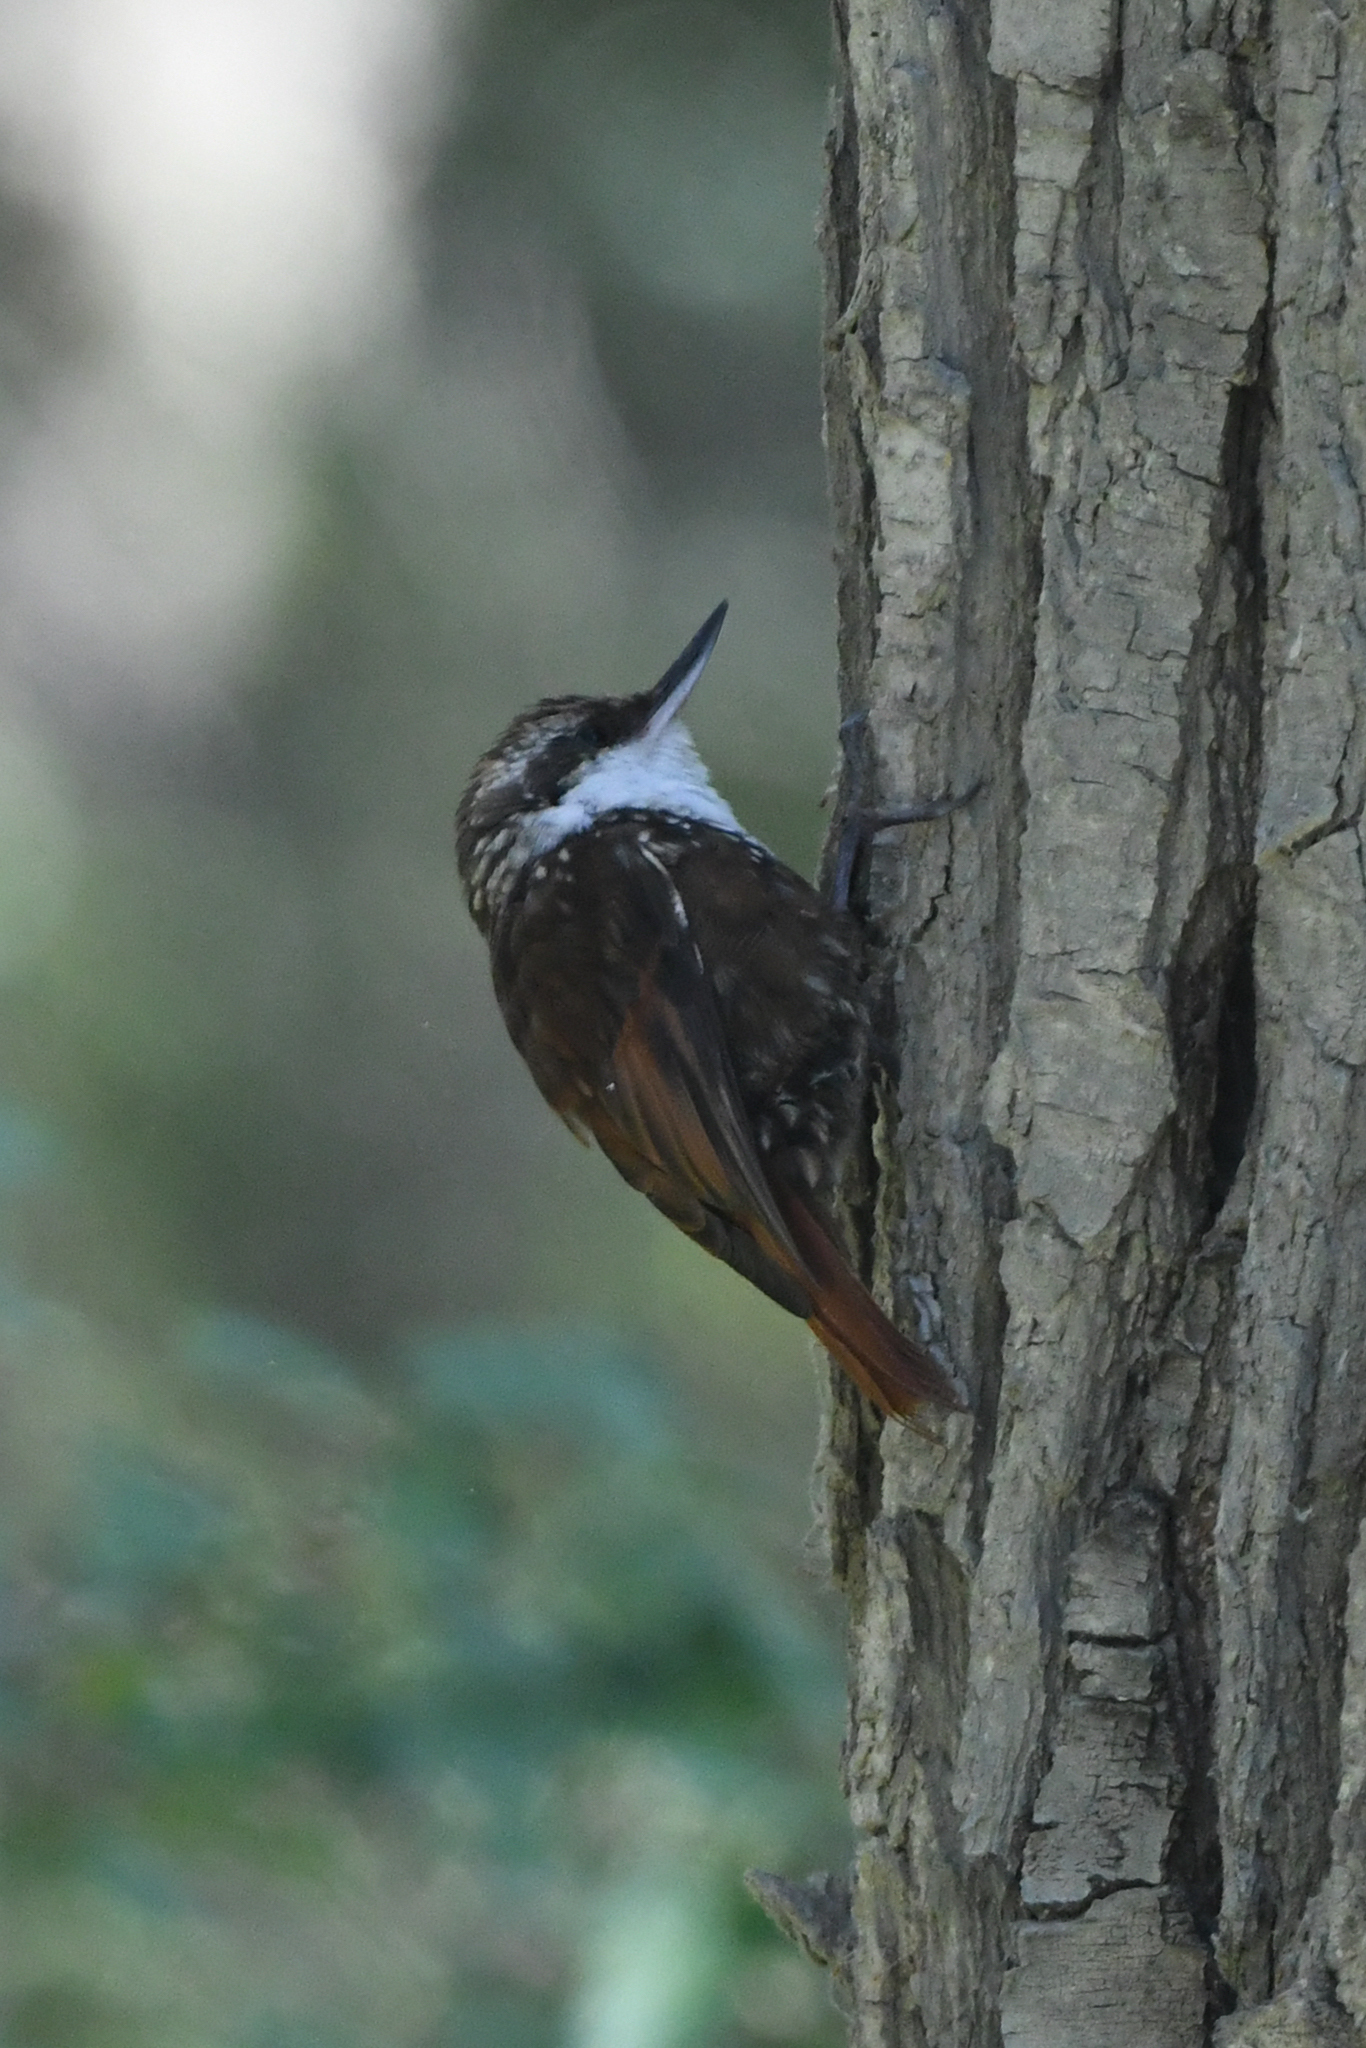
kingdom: Animalia
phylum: Chordata
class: Aves
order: Passeriformes
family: Furnariidae
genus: Pygarrhichas
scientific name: Pygarrhichas albogularis
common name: White-throated treerunner
